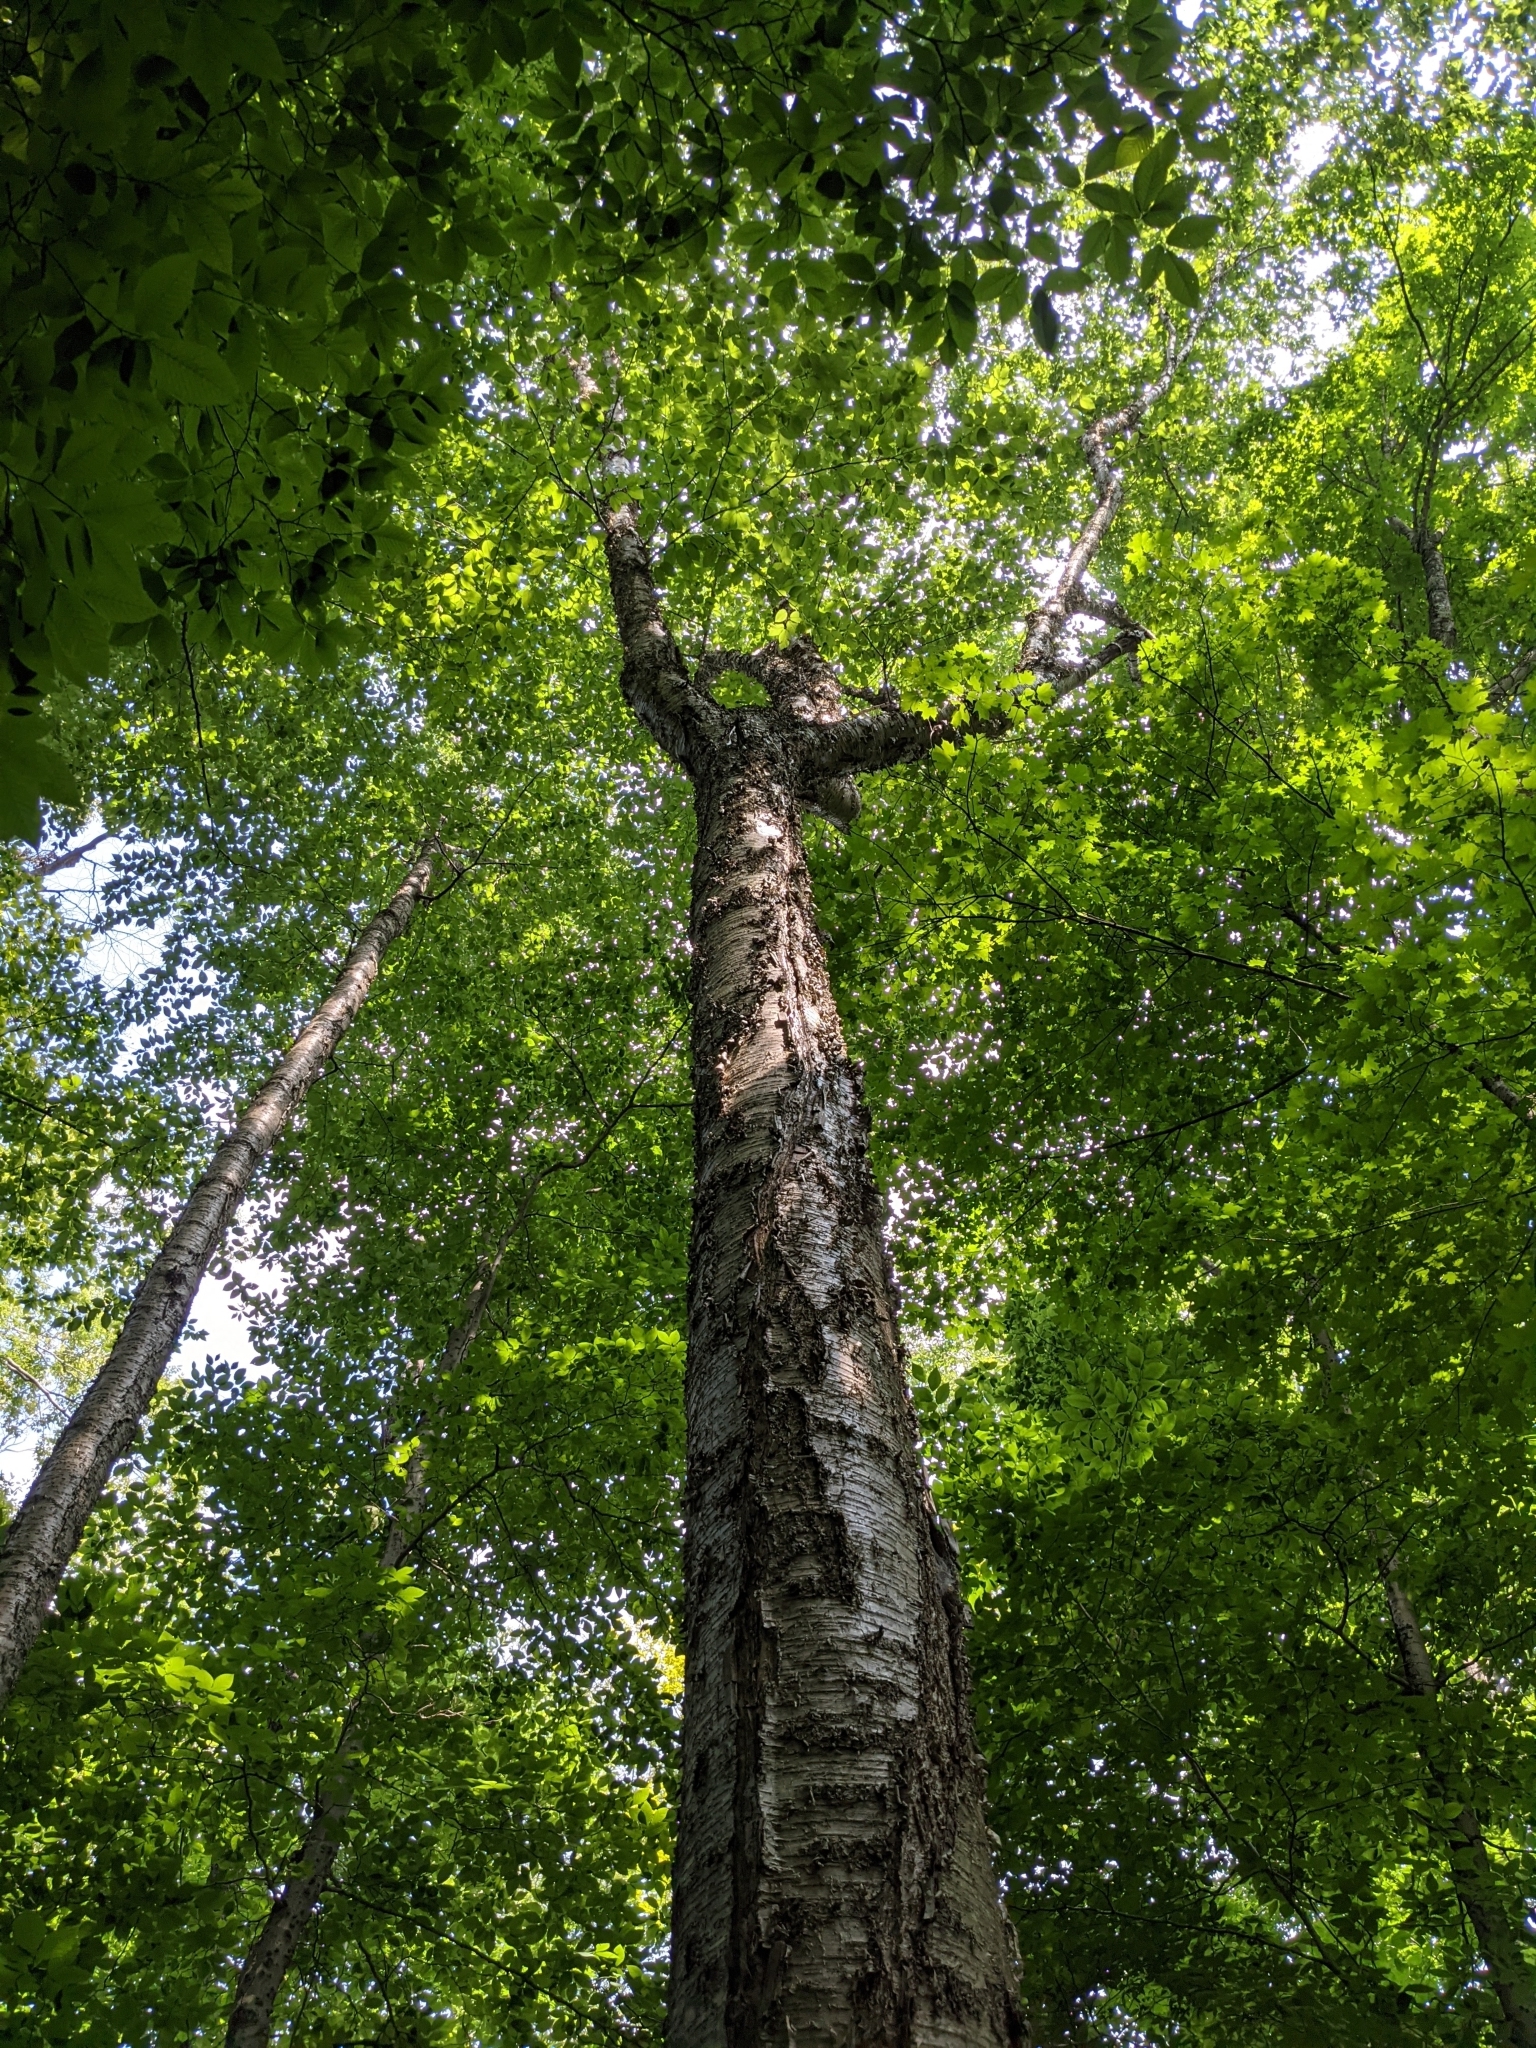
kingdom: Plantae
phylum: Tracheophyta
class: Magnoliopsida
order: Fagales
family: Betulaceae
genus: Betula
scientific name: Betula alleghaniensis
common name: Yellow birch
